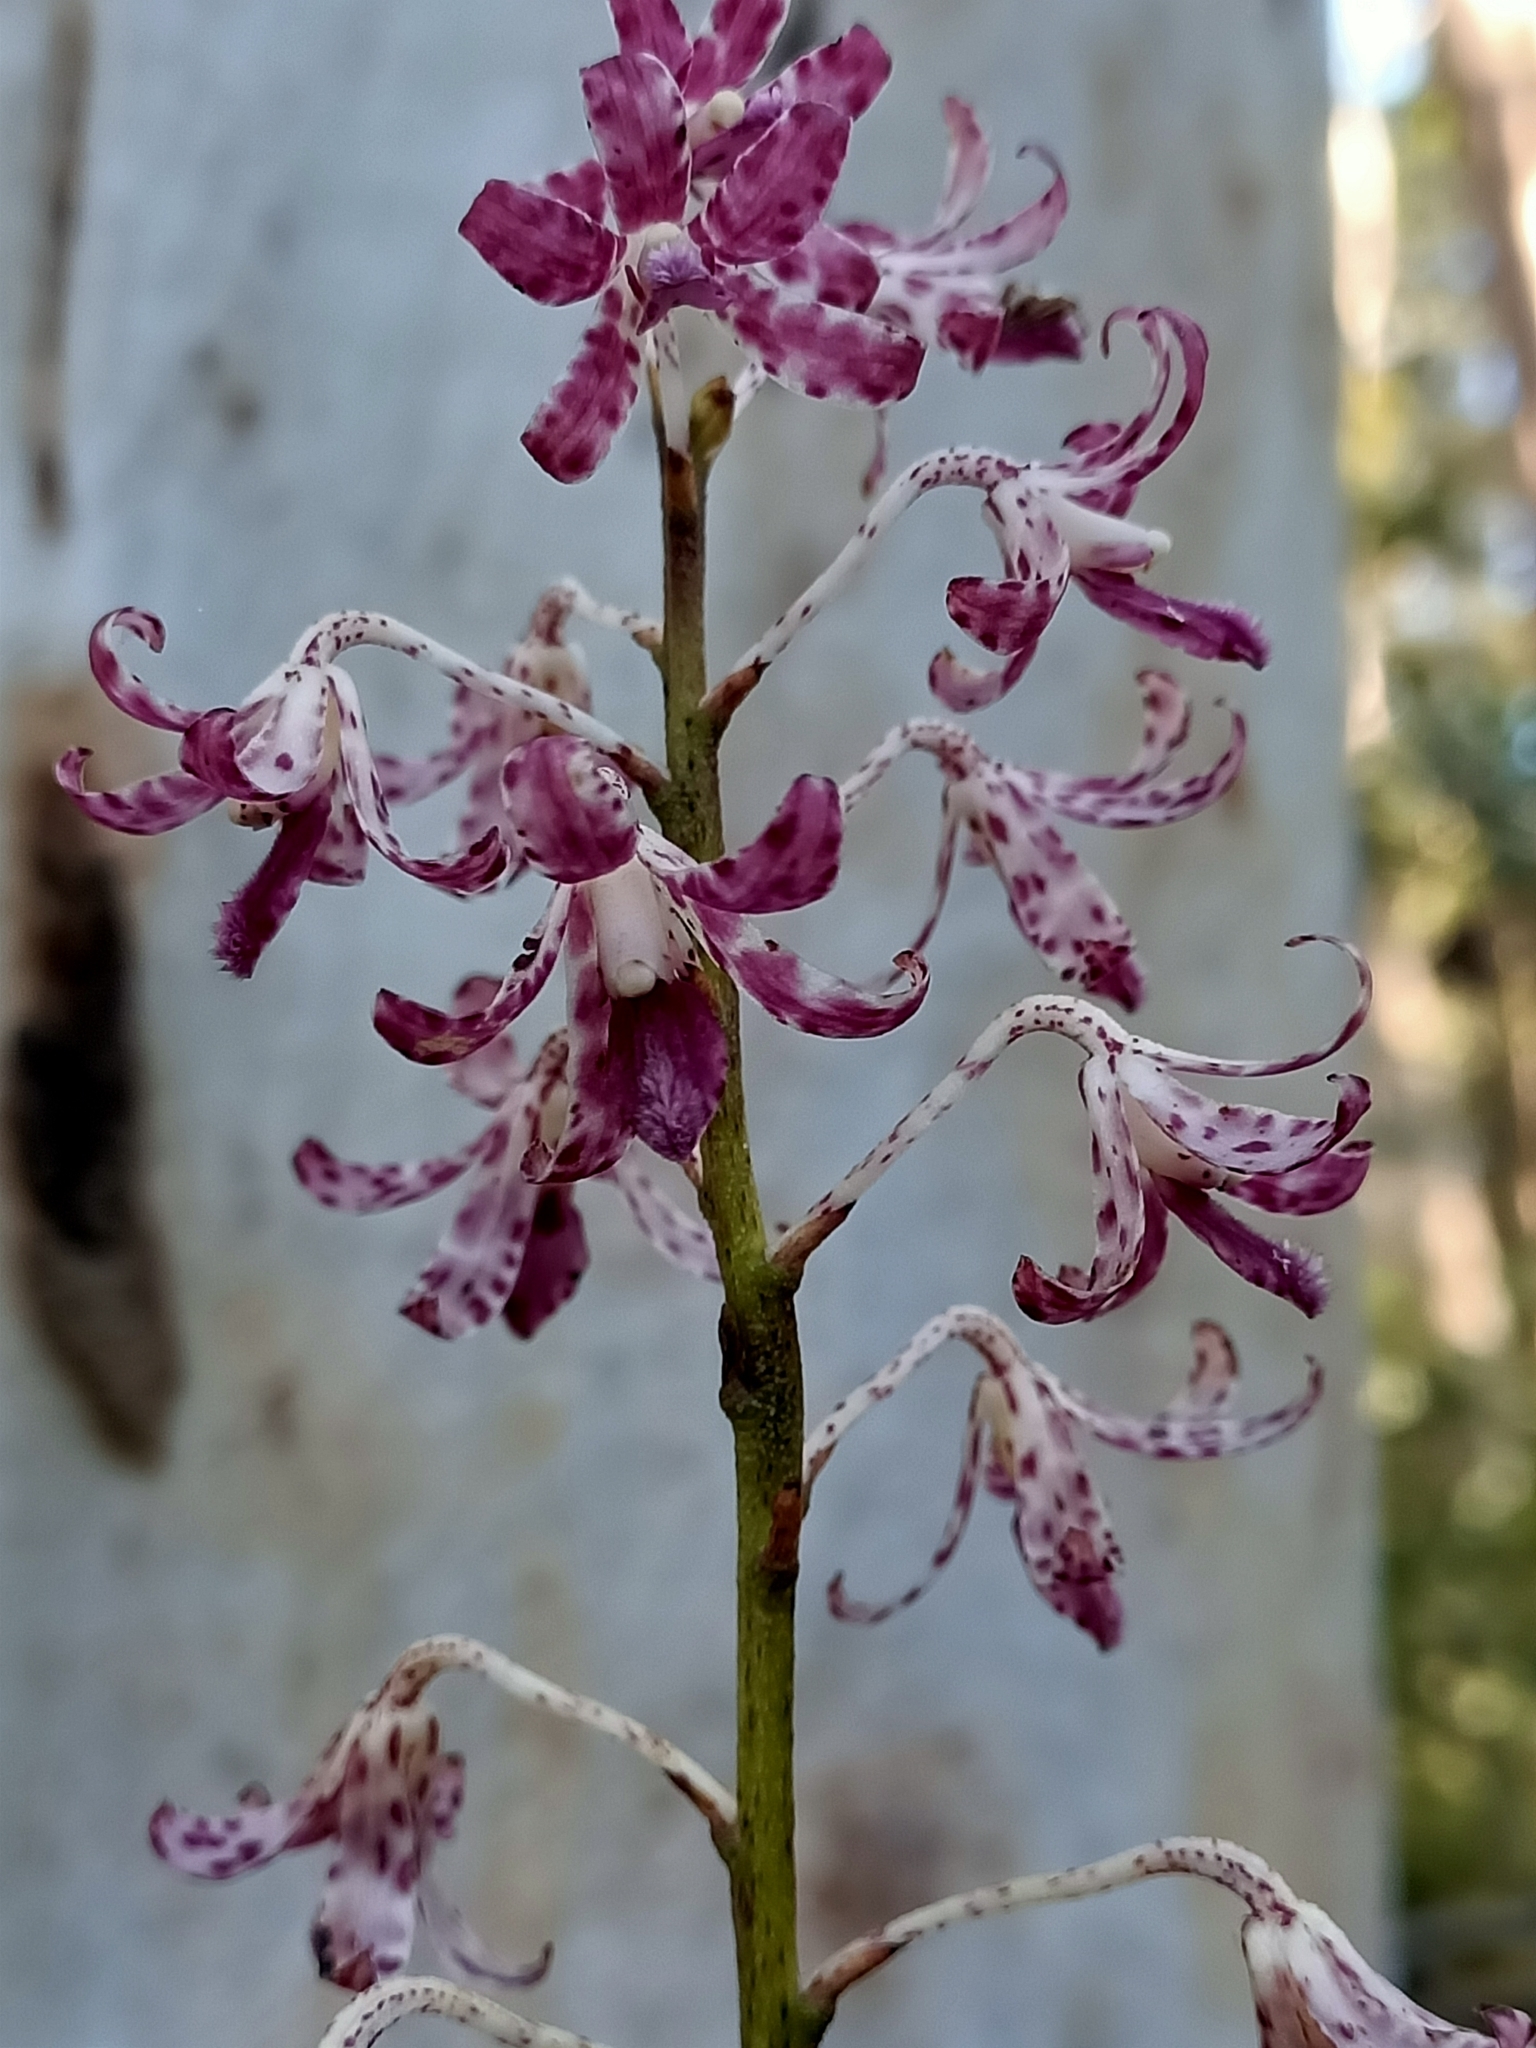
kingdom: Plantae
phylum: Tracheophyta
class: Liliopsida
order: Asparagales
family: Orchidaceae
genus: Dipodium
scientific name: Dipodium variegatum
